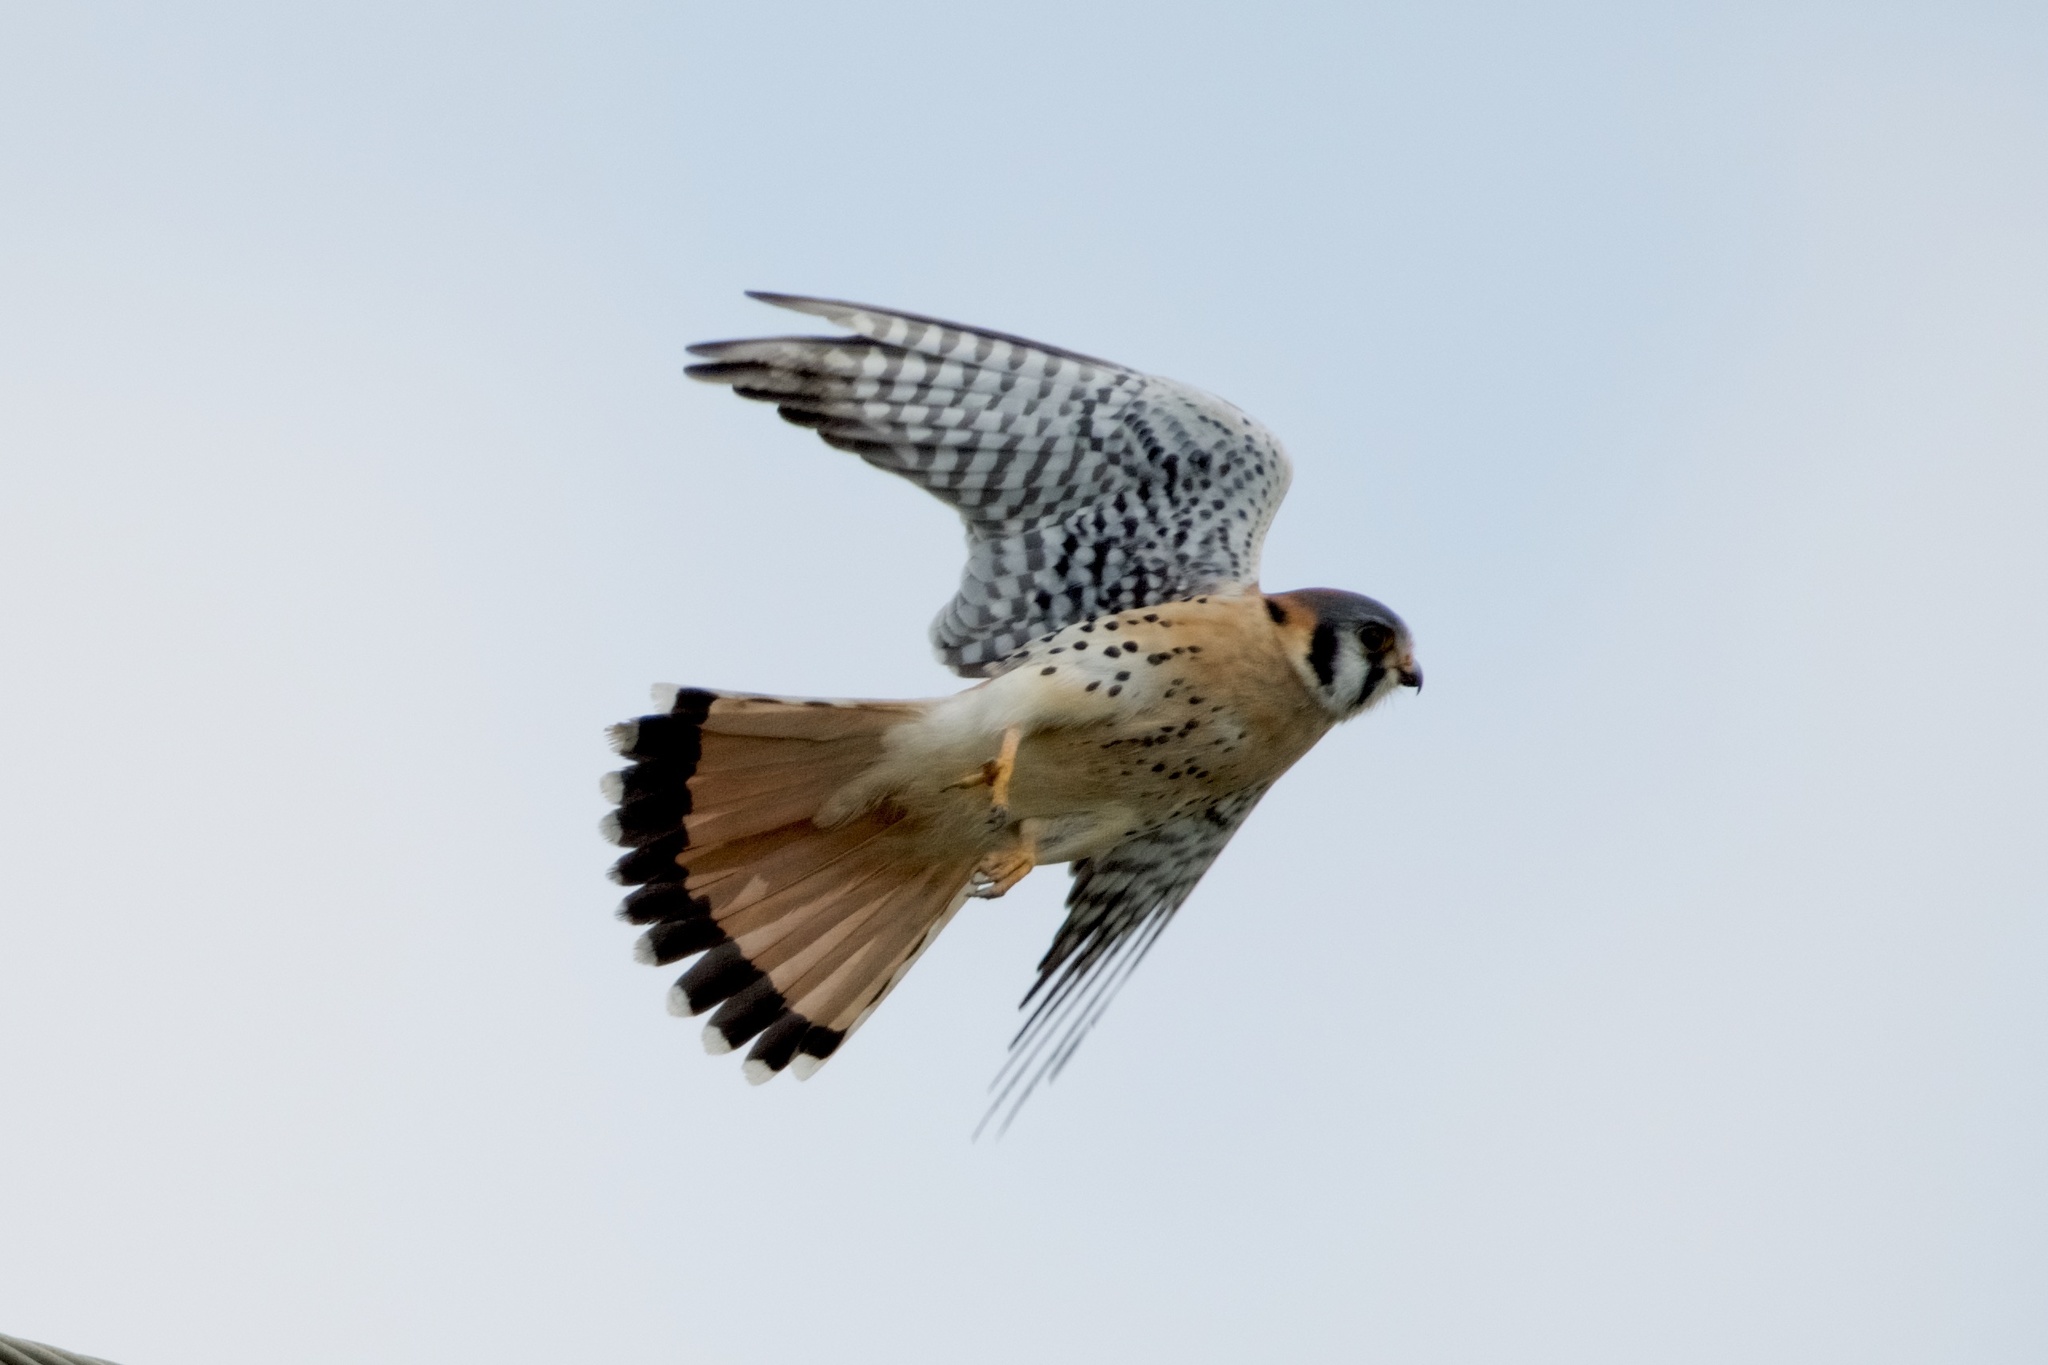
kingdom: Animalia
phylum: Chordata
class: Aves
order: Falconiformes
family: Falconidae
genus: Falco
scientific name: Falco sparverius
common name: American kestrel
